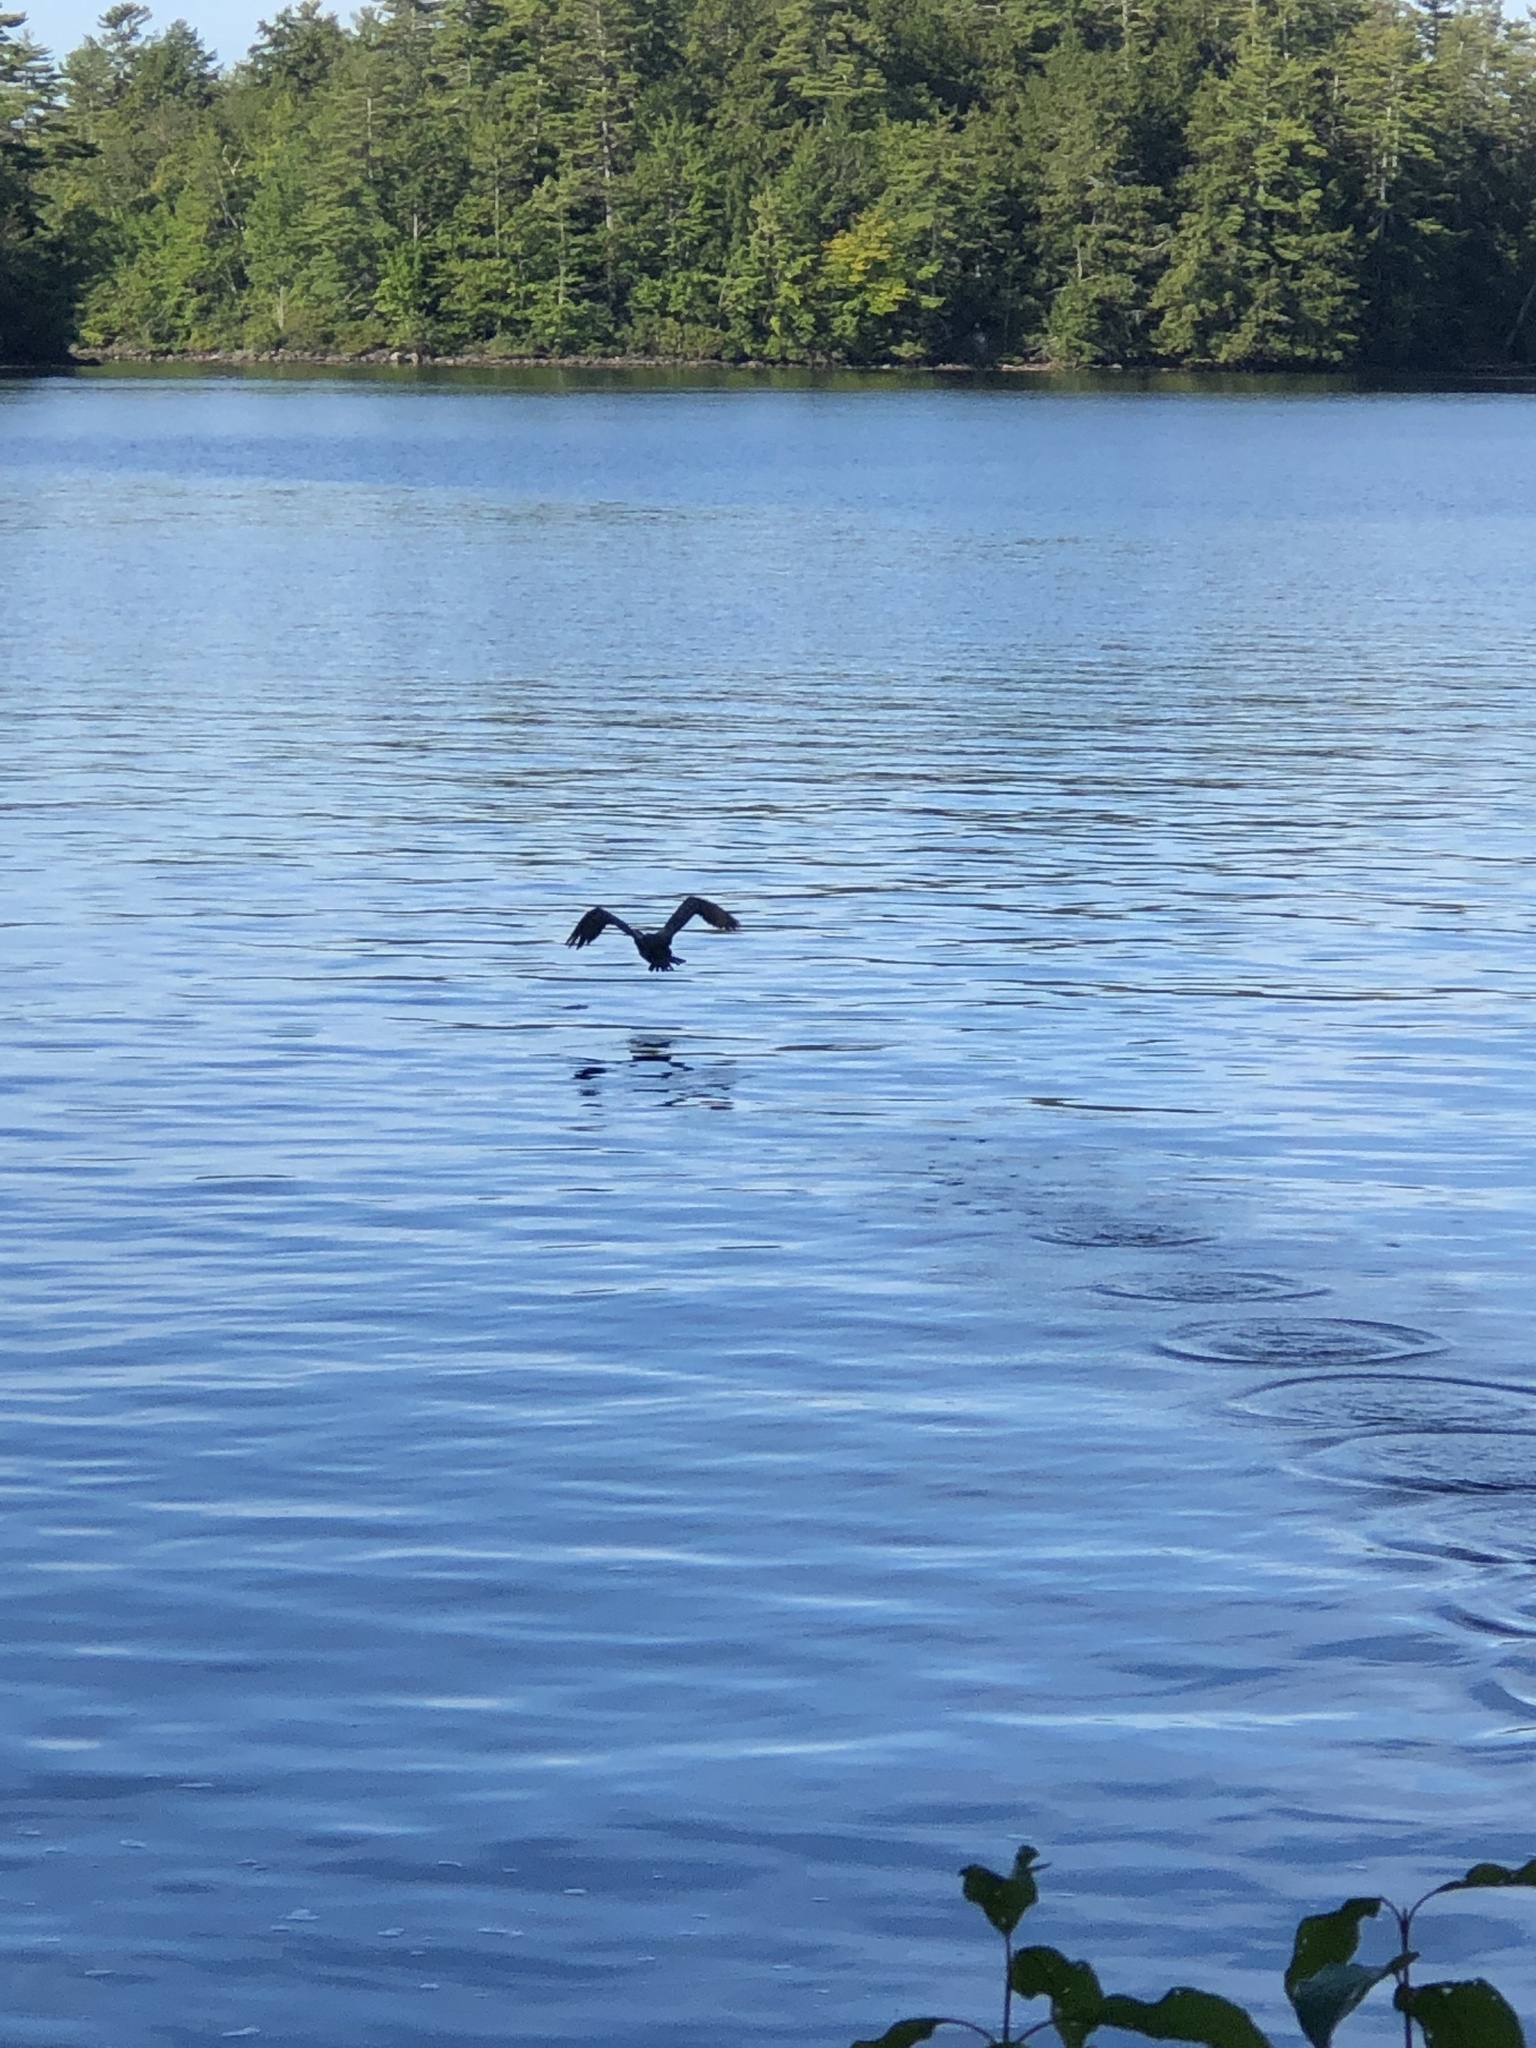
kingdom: Animalia
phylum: Chordata
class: Aves
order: Suliformes
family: Phalacrocoracidae
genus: Phalacrocorax
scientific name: Phalacrocorax auritus
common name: Double-crested cormorant
